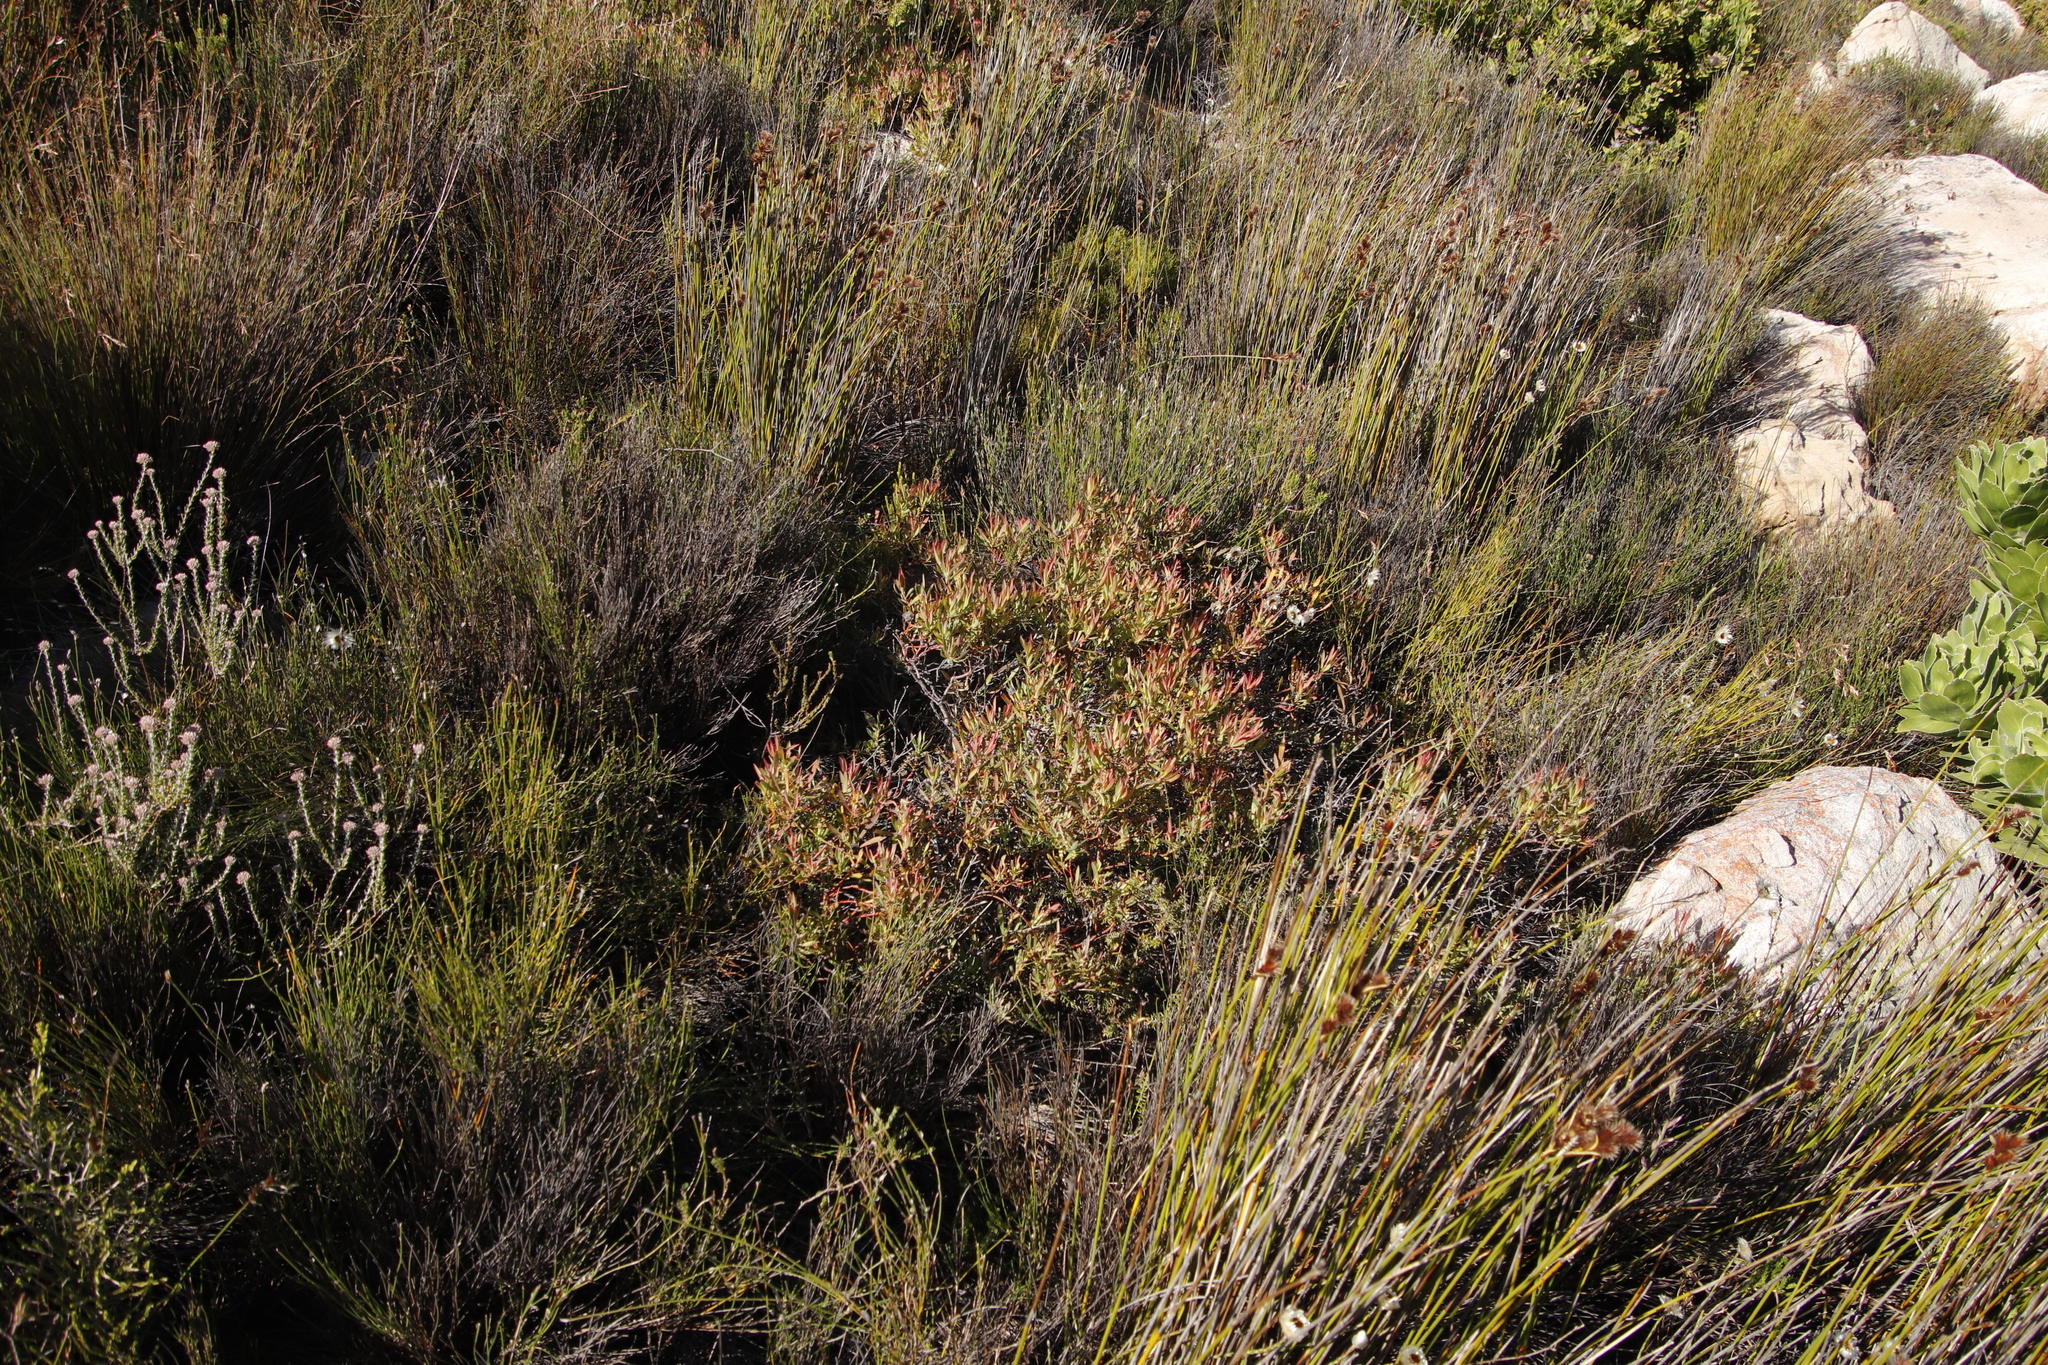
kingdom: Plantae
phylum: Tracheophyta
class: Magnoliopsida
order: Proteales
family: Proteaceae
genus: Leucadendron
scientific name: Leucadendron salignum
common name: Common sunshine conebush
